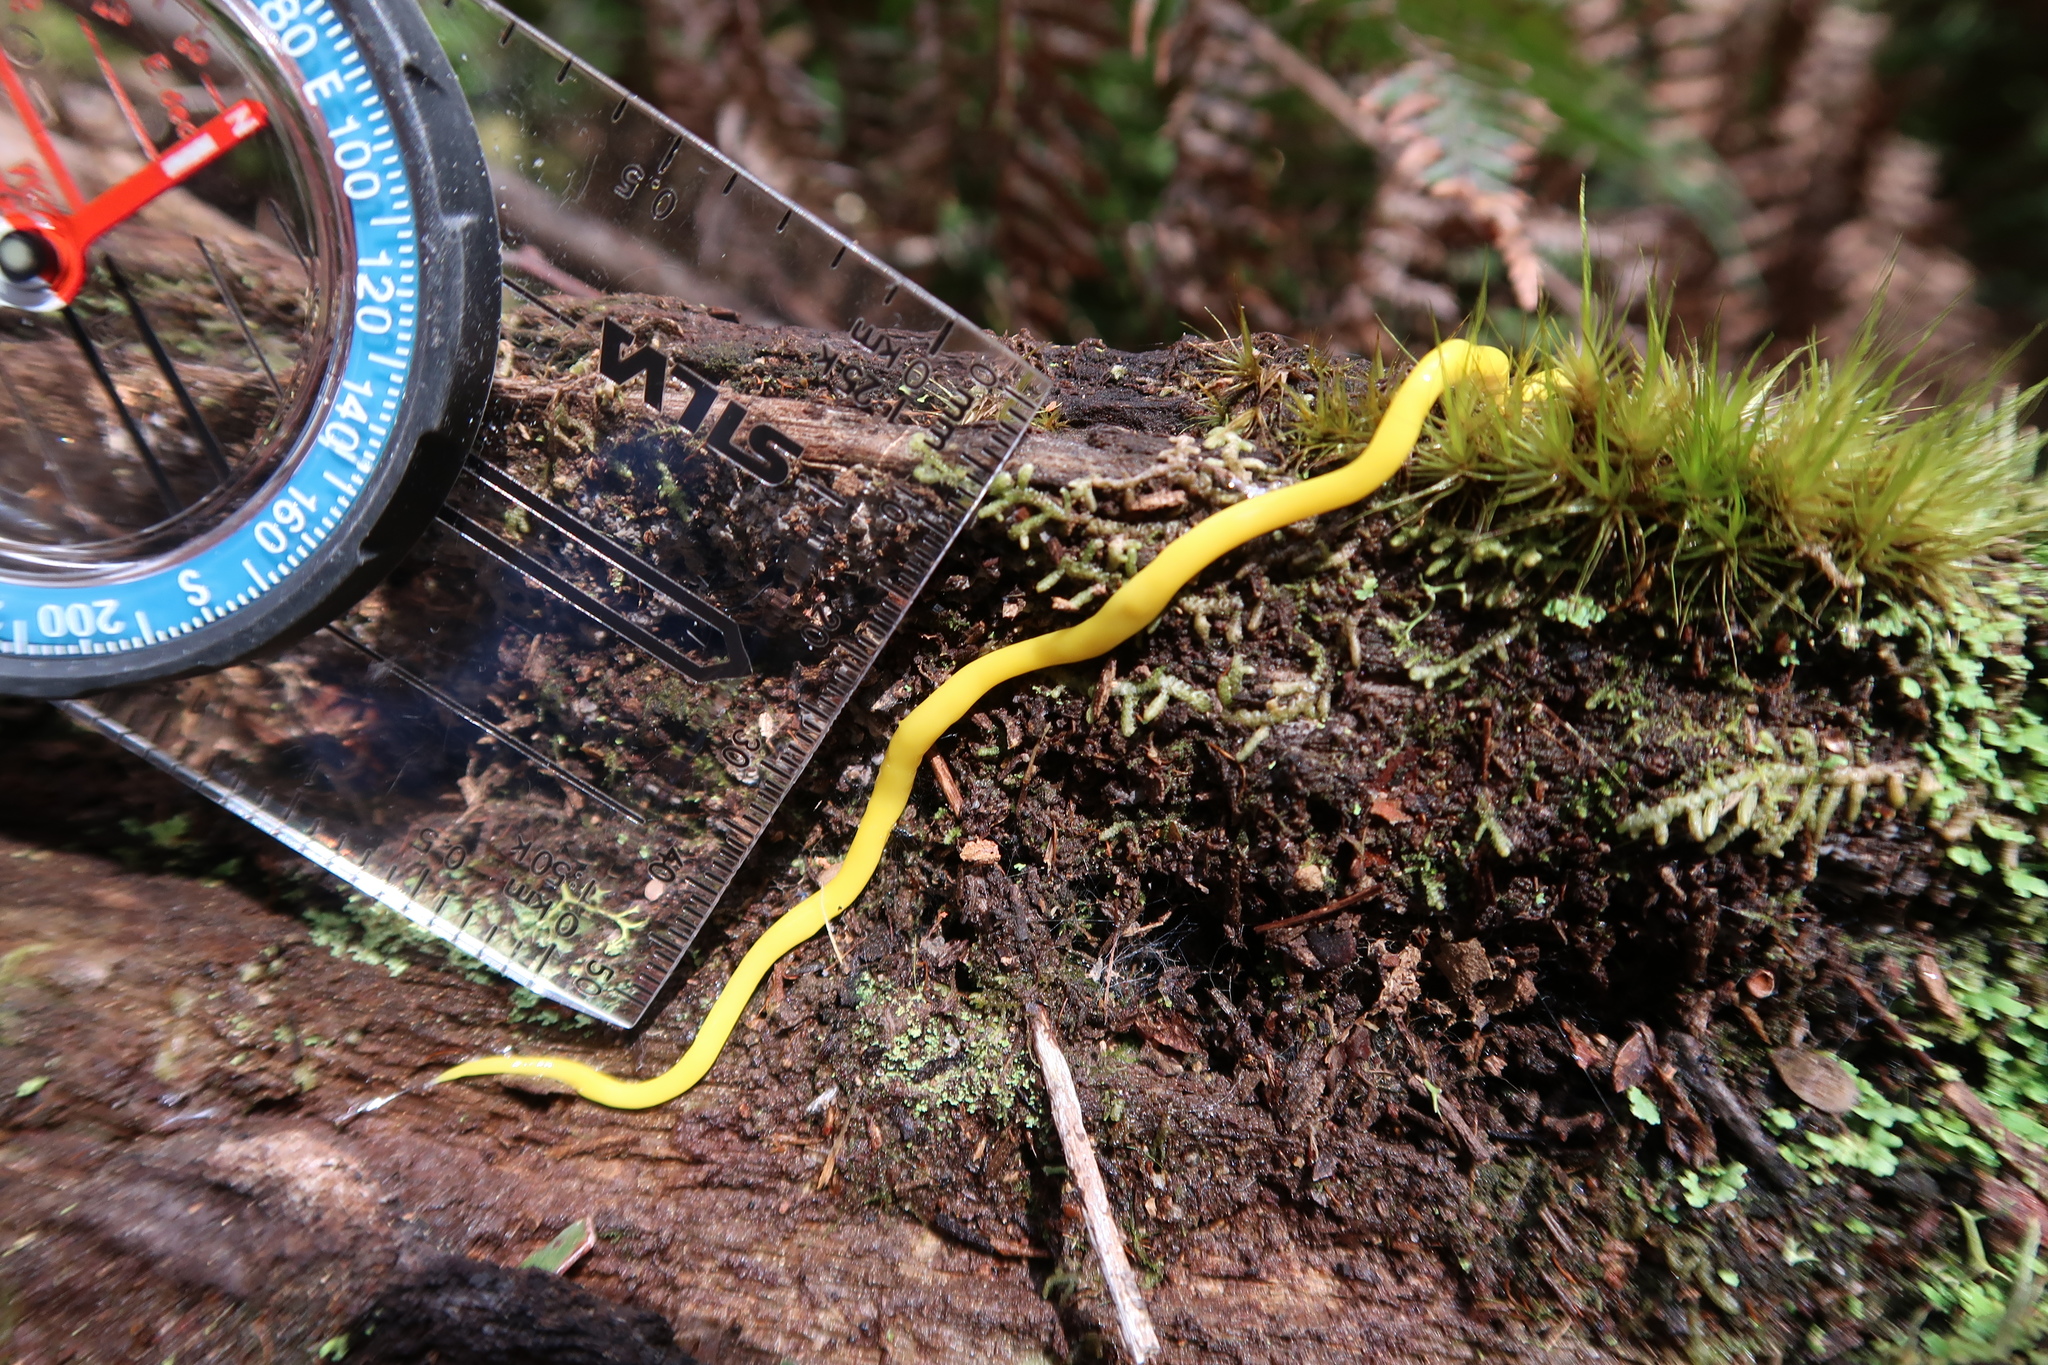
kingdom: Animalia
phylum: Platyhelminthes
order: Tricladida
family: Geoplanidae
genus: Fletchamia
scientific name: Fletchamia sugdeni
